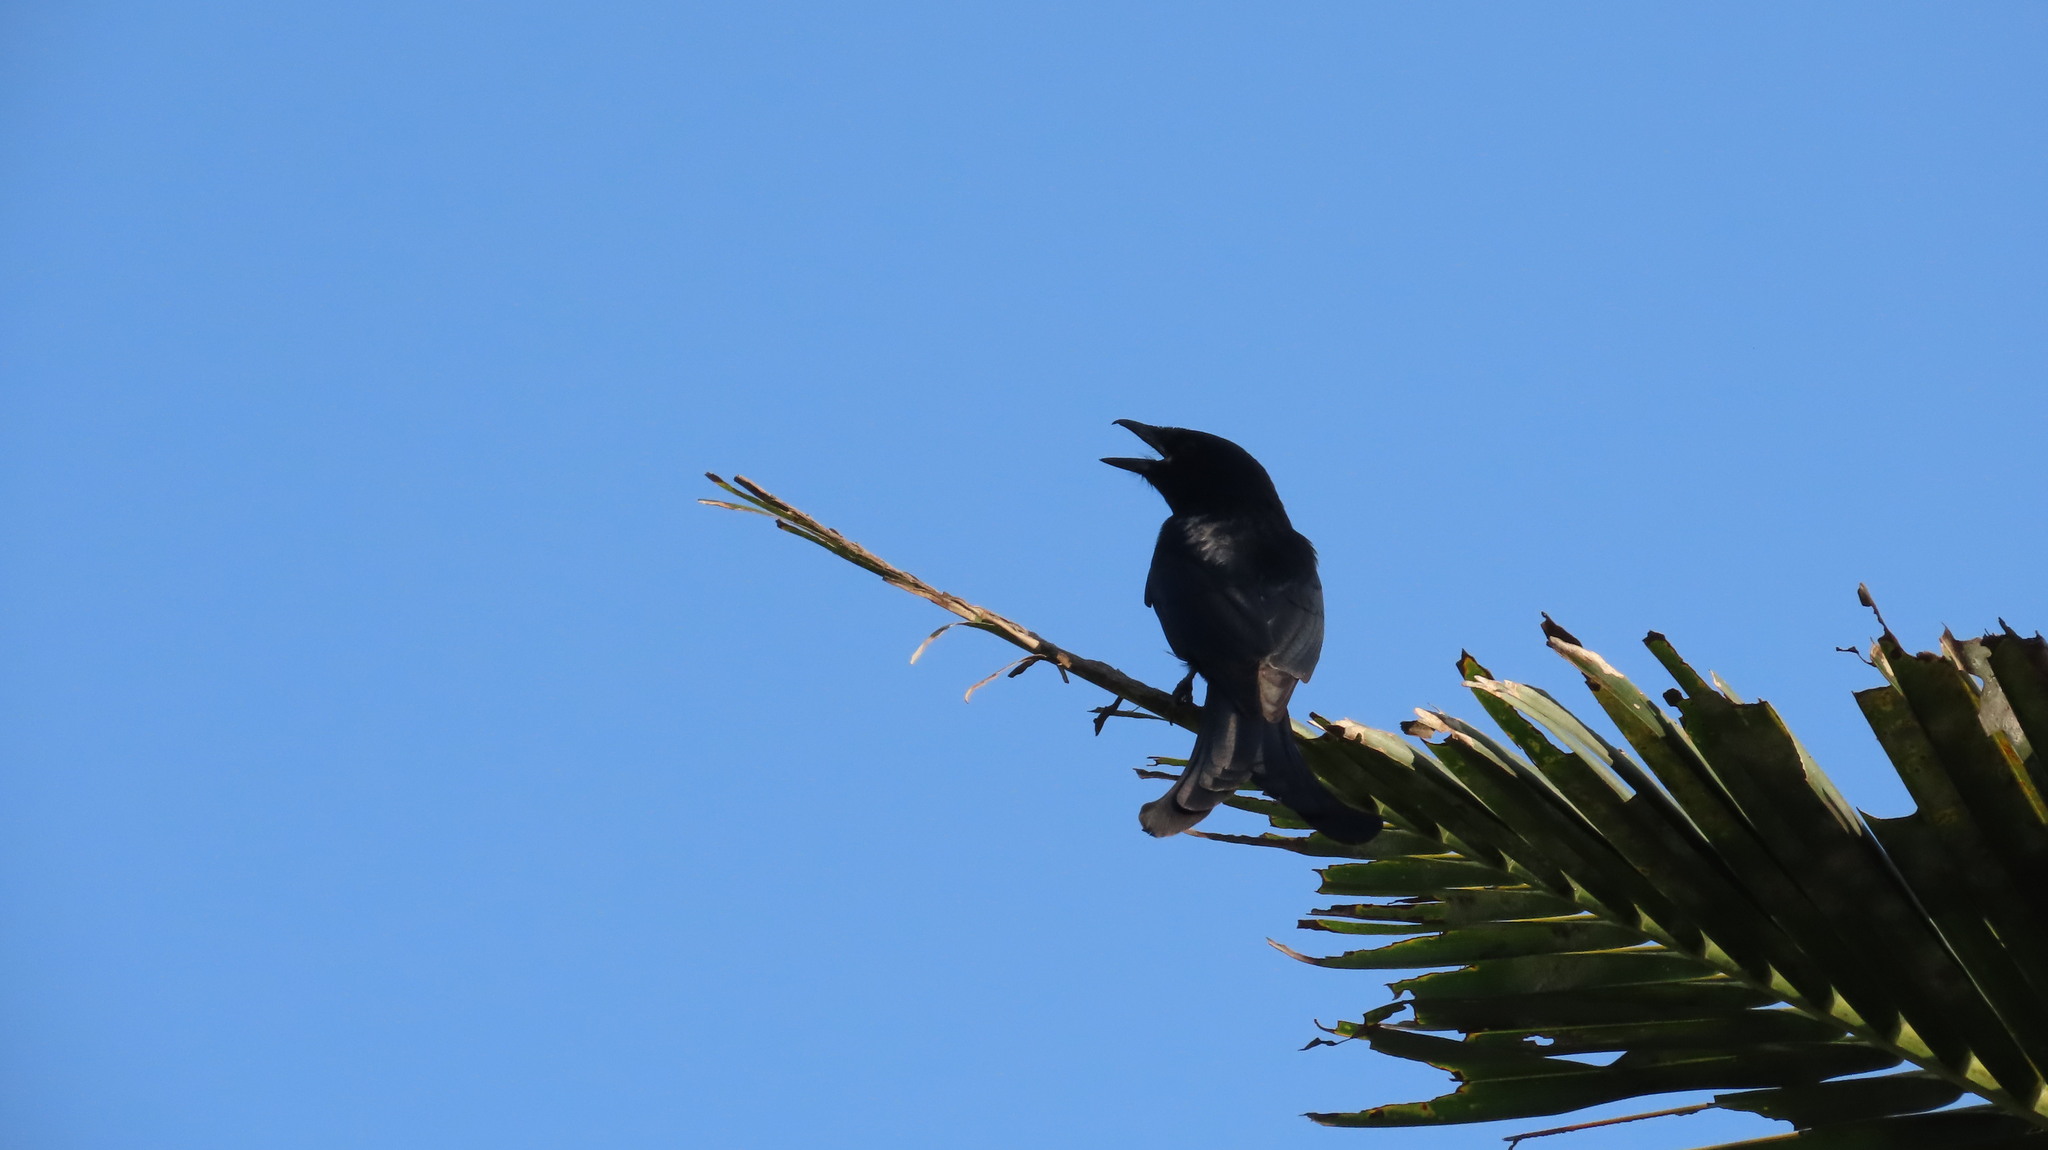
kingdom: Animalia
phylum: Chordata
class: Aves
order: Passeriformes
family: Dicruridae
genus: Dicrurus
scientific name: Dicrurus macrocercus
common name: Black drongo
